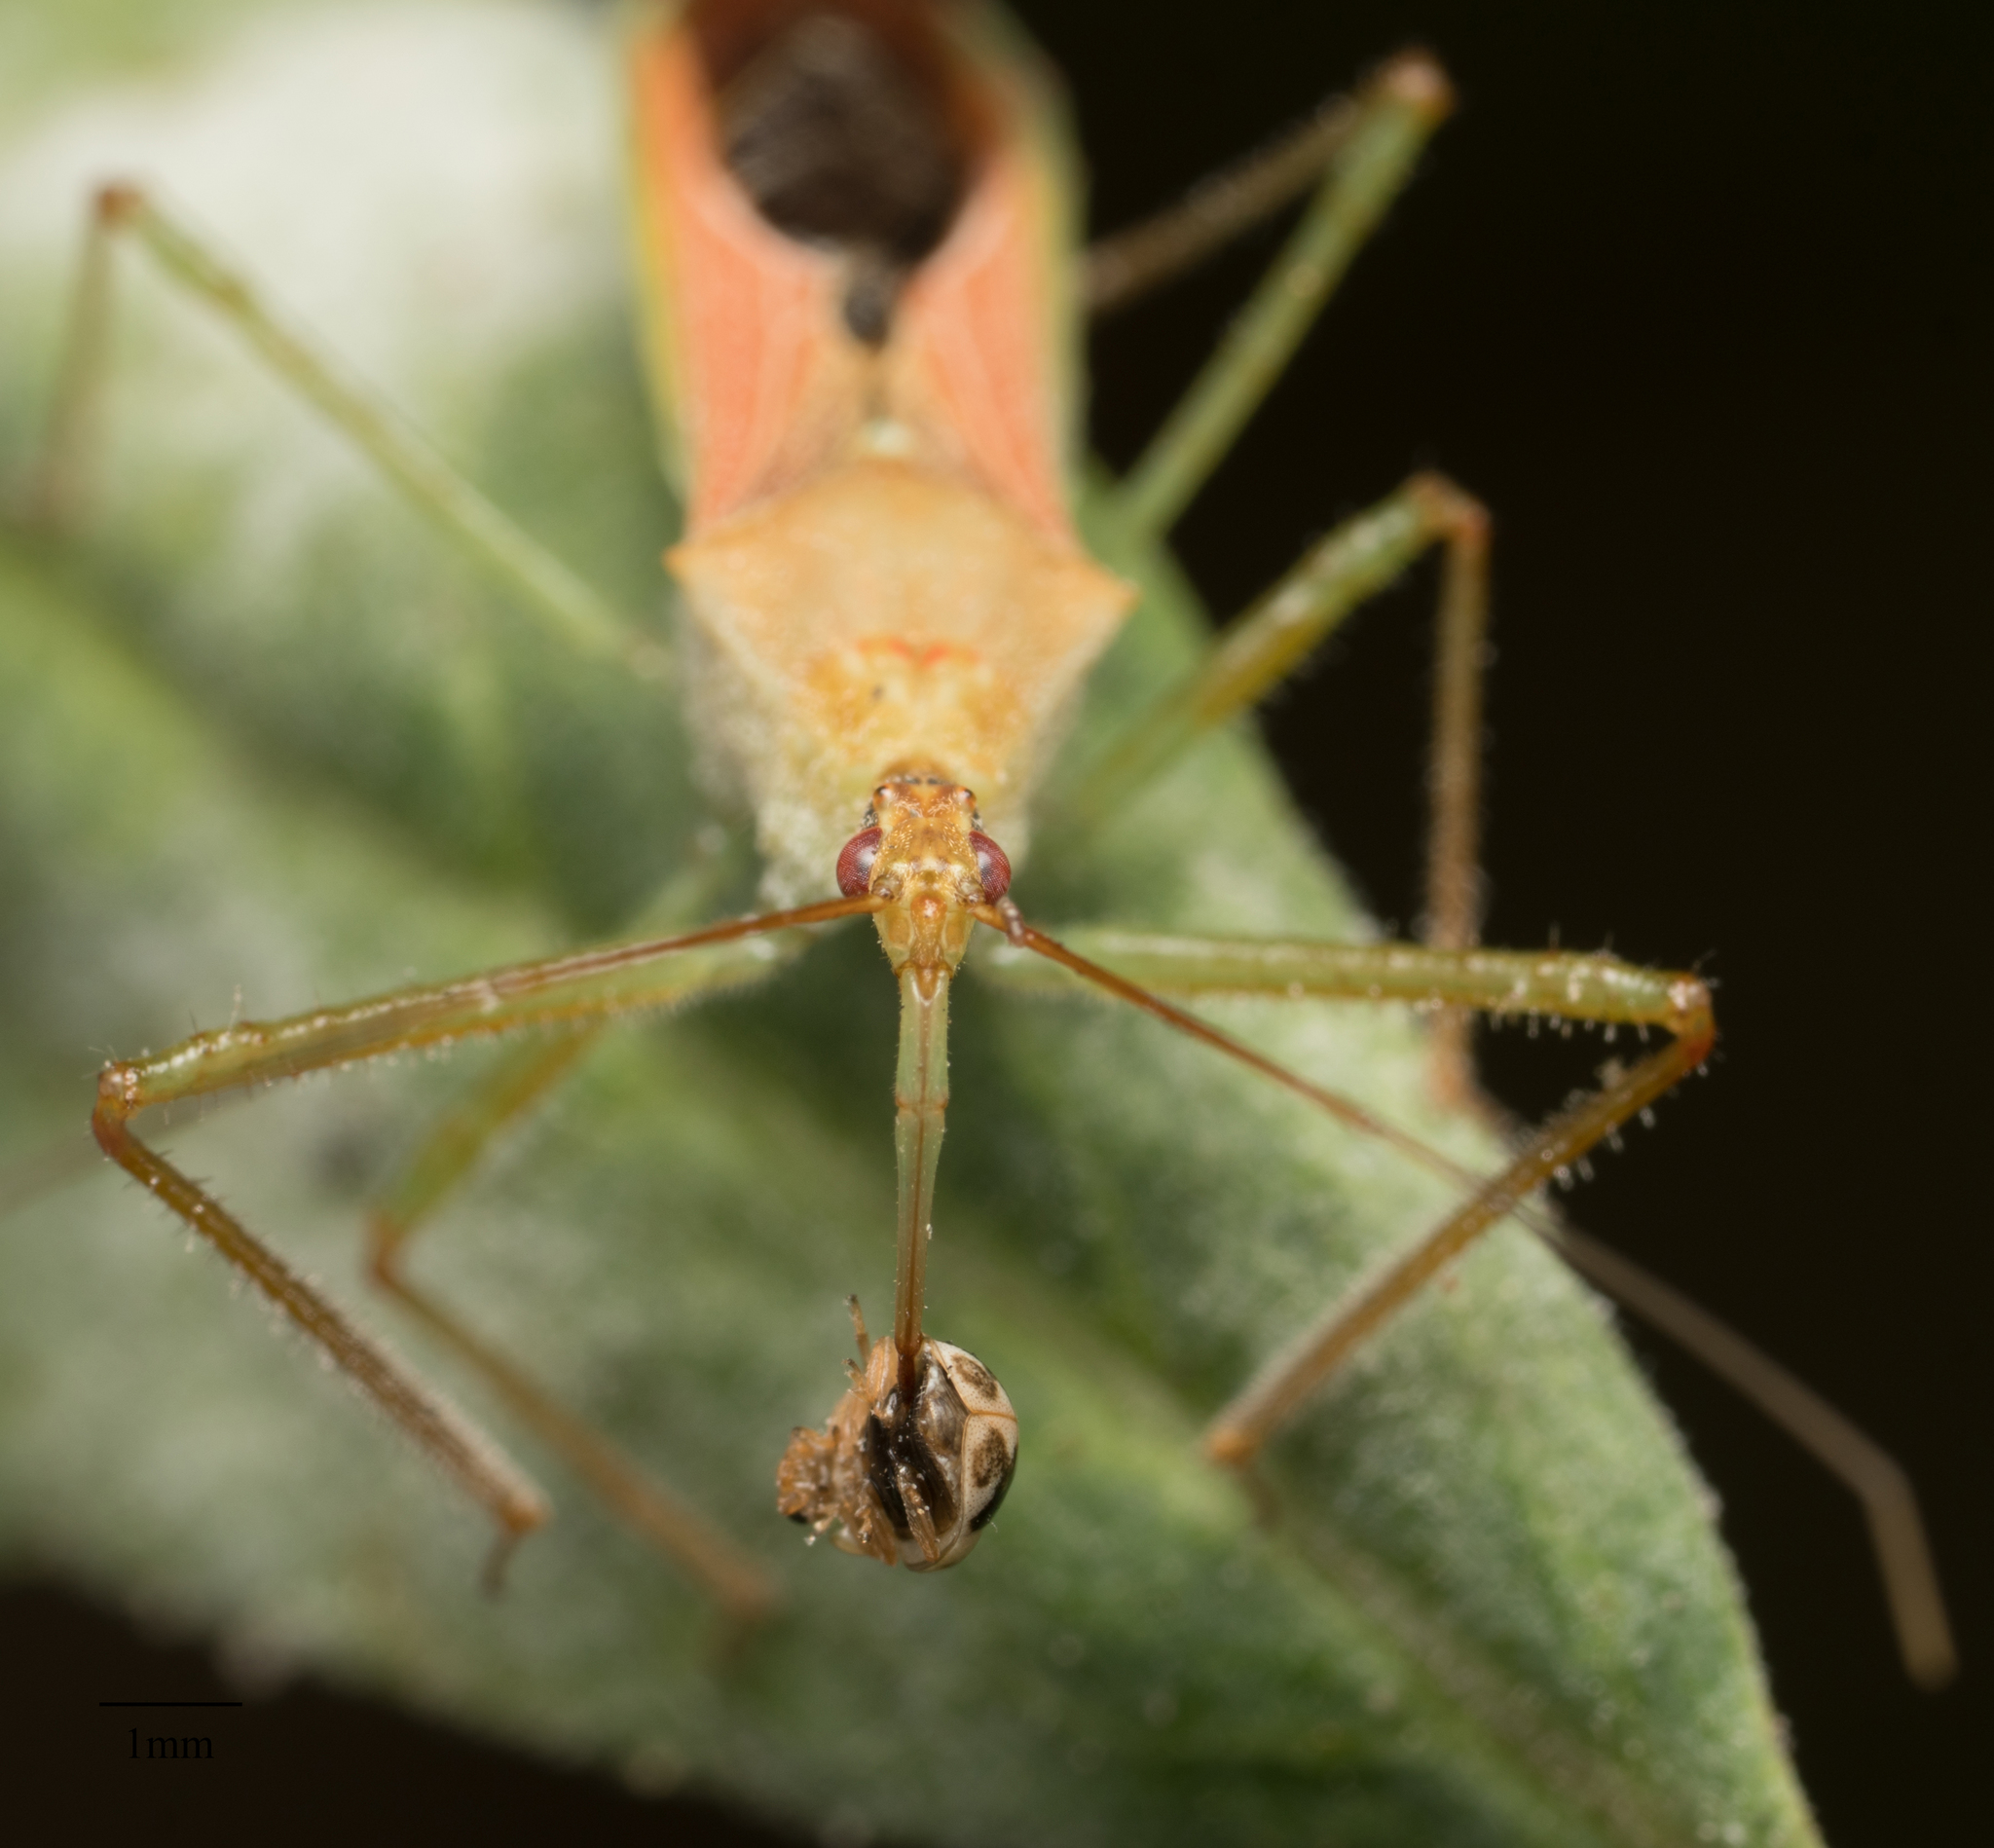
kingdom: Animalia
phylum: Arthropoda
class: Insecta
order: Hemiptera
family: Reduviidae
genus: Zelus
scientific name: Zelus renardii
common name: Assassin bug
